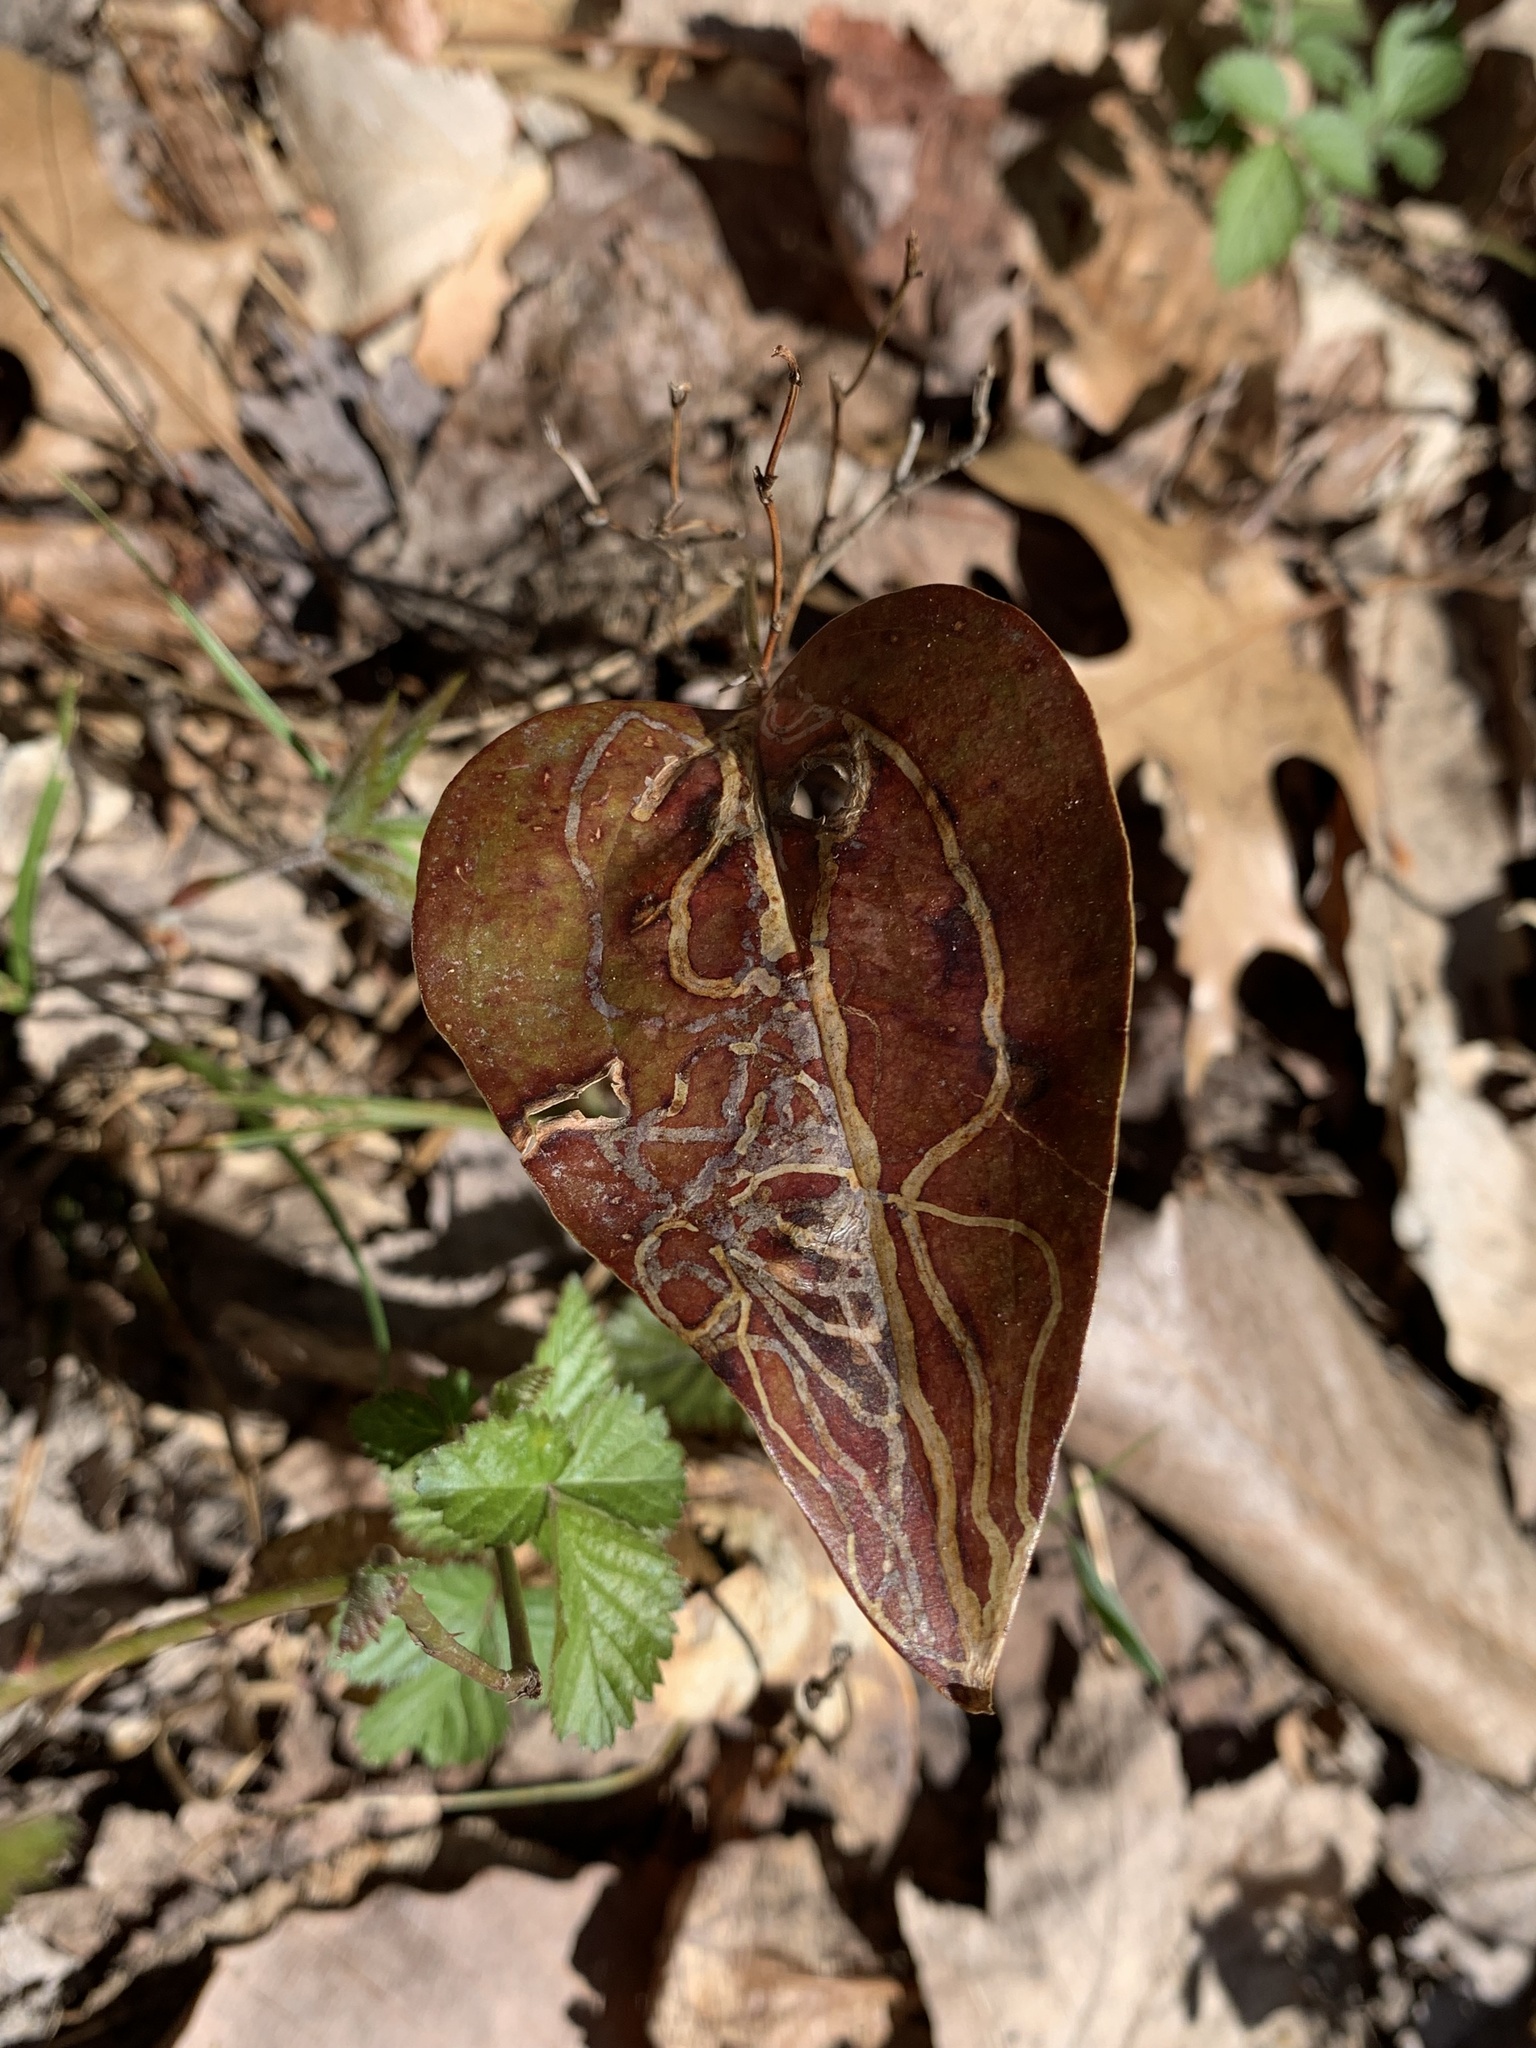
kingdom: Animalia
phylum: Arthropoda
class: Insecta
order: Lepidoptera
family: Gracillariidae
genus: Marmara
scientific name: Marmara smilacisella
